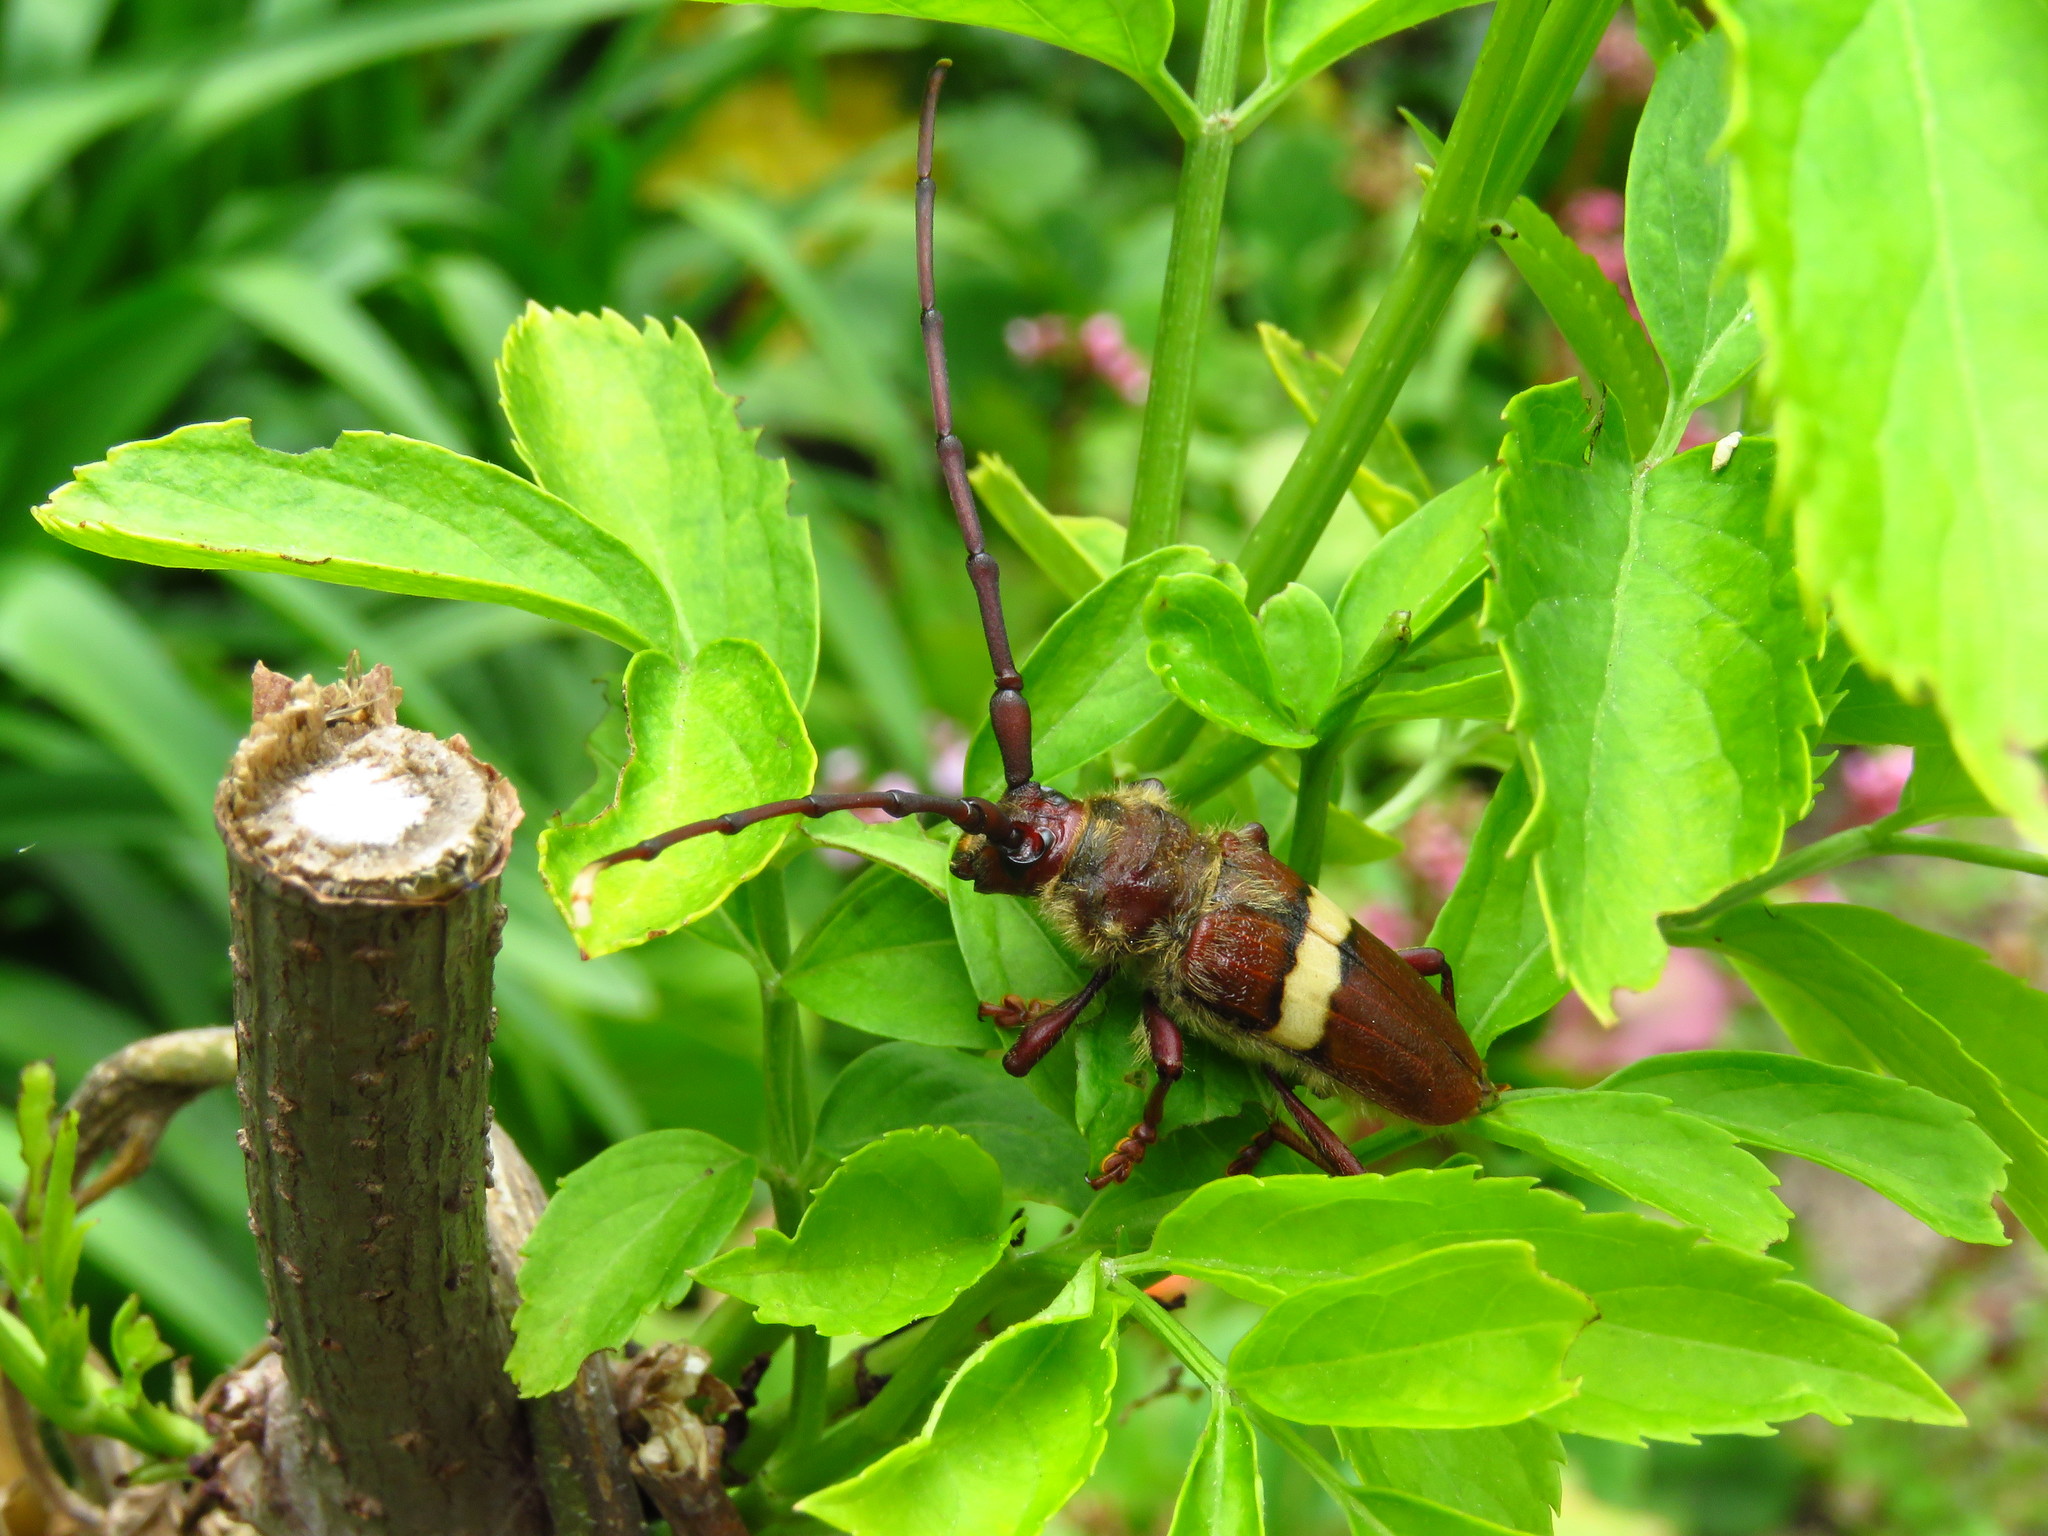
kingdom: Animalia
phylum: Arthropoda
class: Insecta
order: Coleoptera
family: Cerambycidae
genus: Deretrachys
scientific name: Deretrachys juvencus
